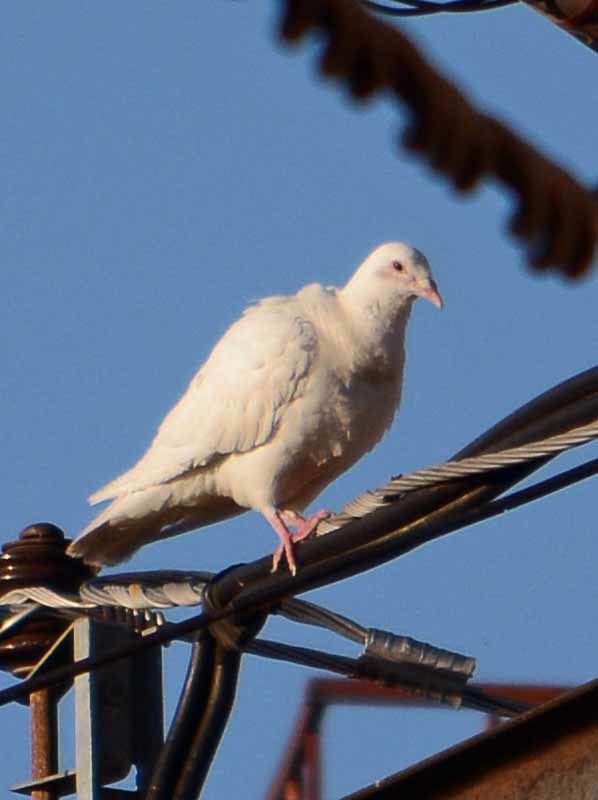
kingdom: Animalia
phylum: Chordata
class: Aves
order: Columbiformes
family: Columbidae
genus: Columba
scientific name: Columba livia
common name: Rock pigeon
